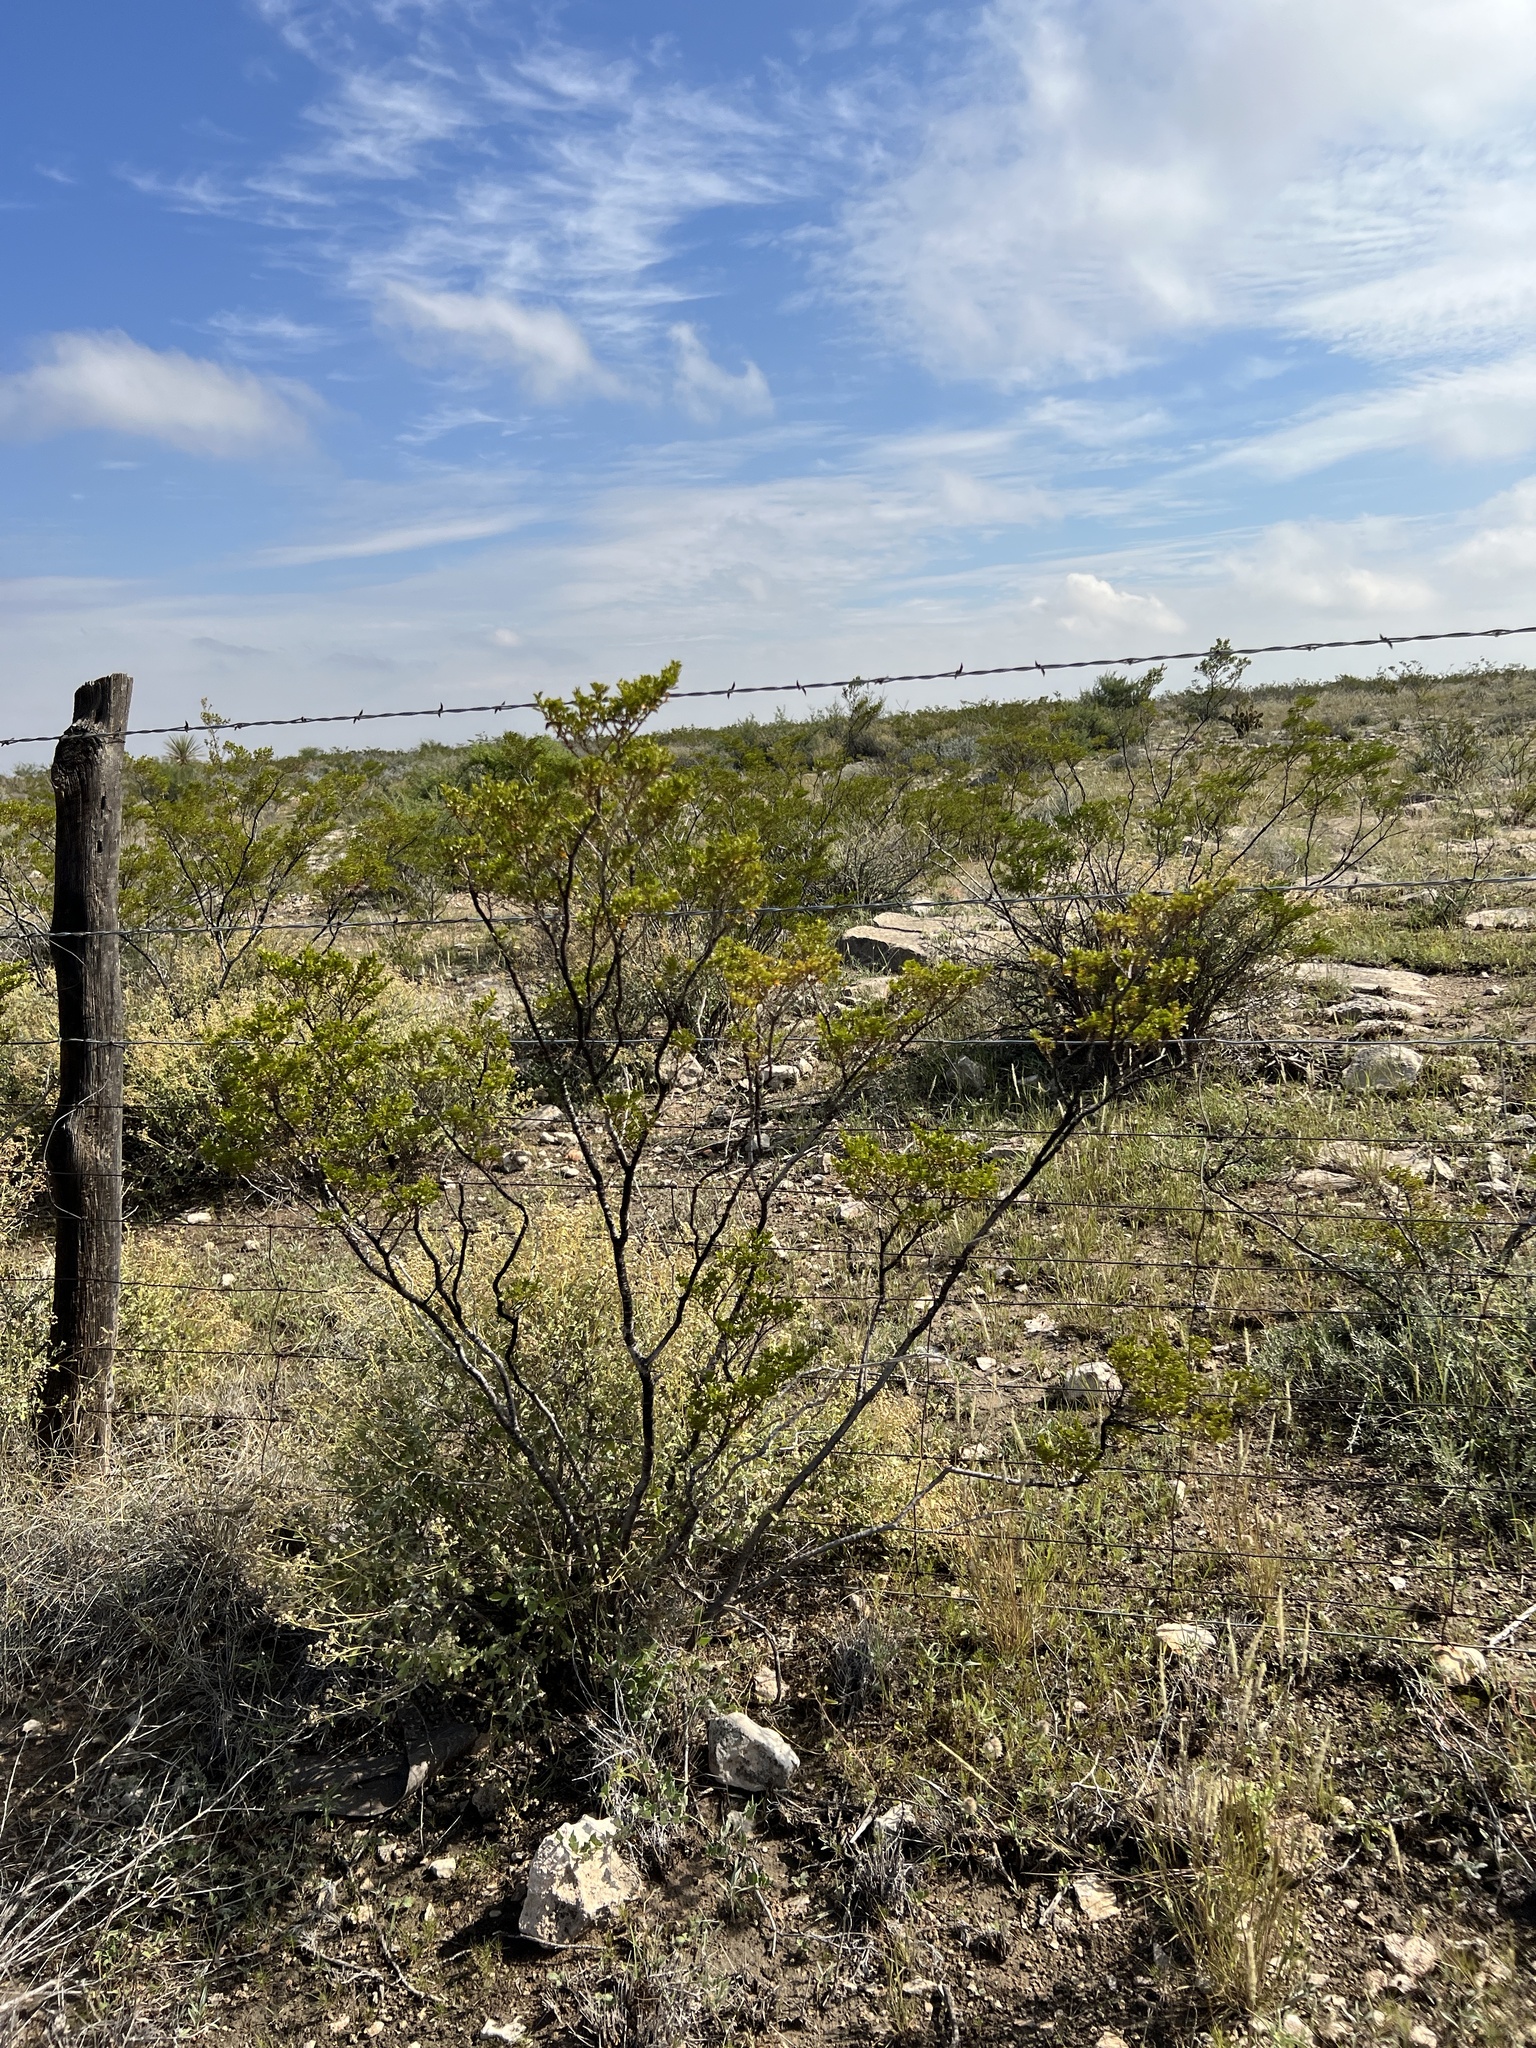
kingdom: Plantae
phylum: Tracheophyta
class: Magnoliopsida
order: Zygophyllales
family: Zygophyllaceae
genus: Larrea
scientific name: Larrea tridentata
